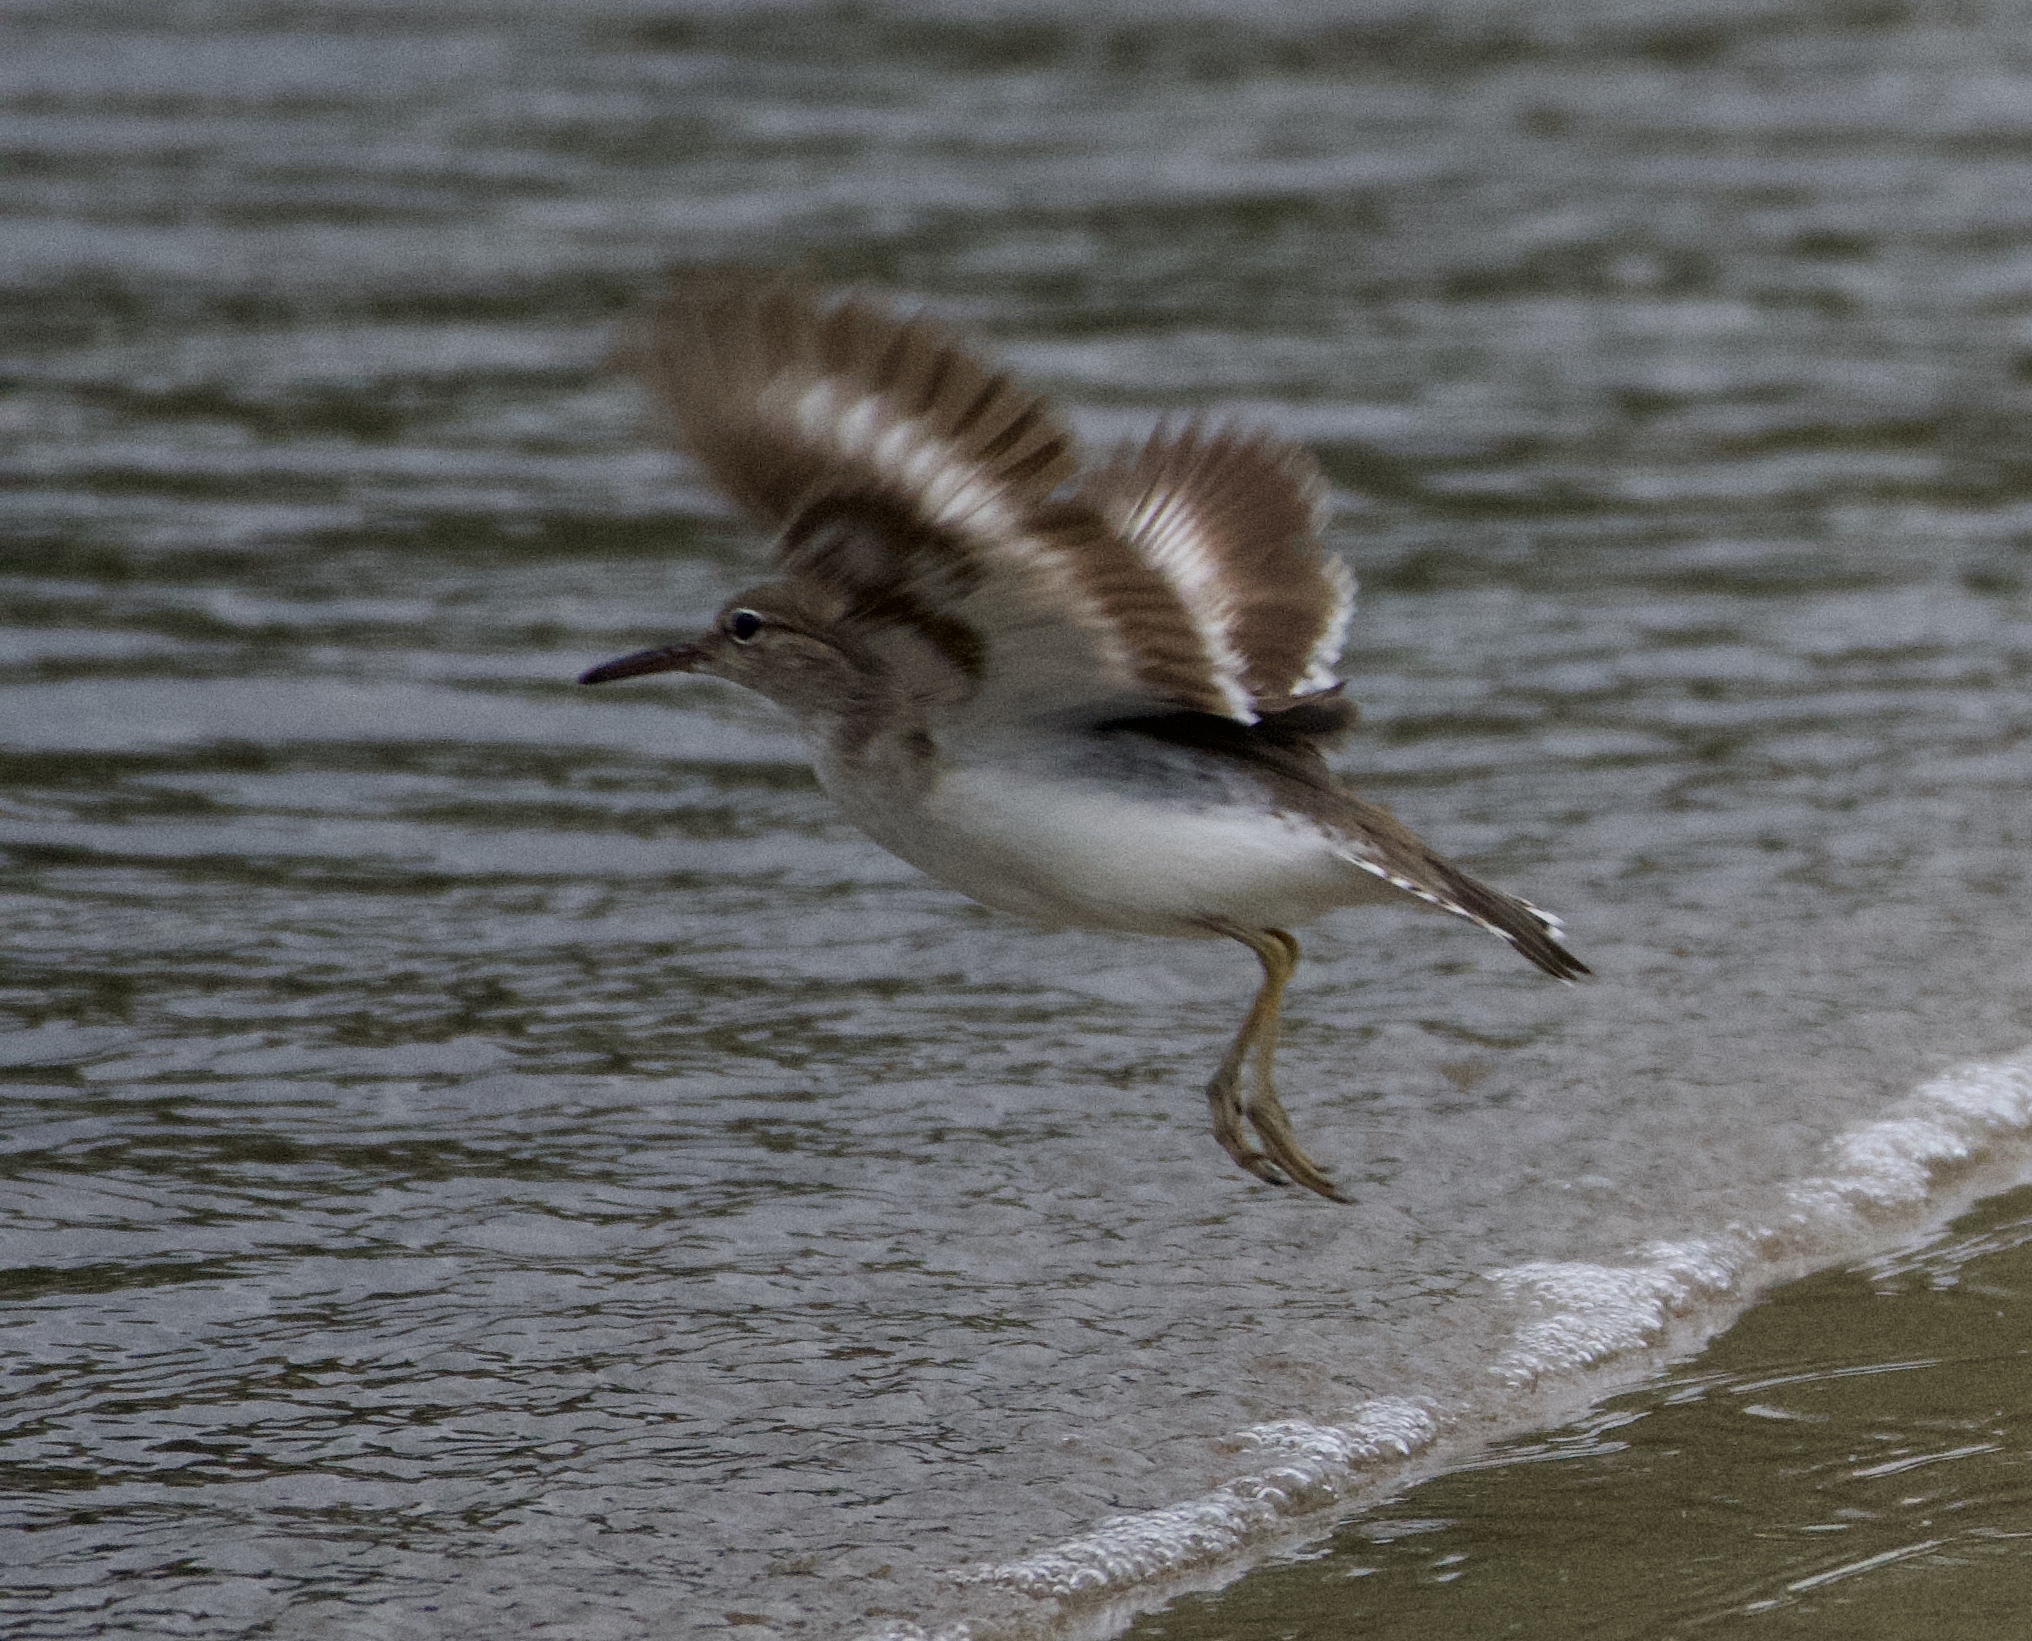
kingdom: Animalia
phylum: Chordata
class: Aves
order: Charadriiformes
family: Scolopacidae
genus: Actitis
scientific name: Actitis macularius
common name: Spotted sandpiper
